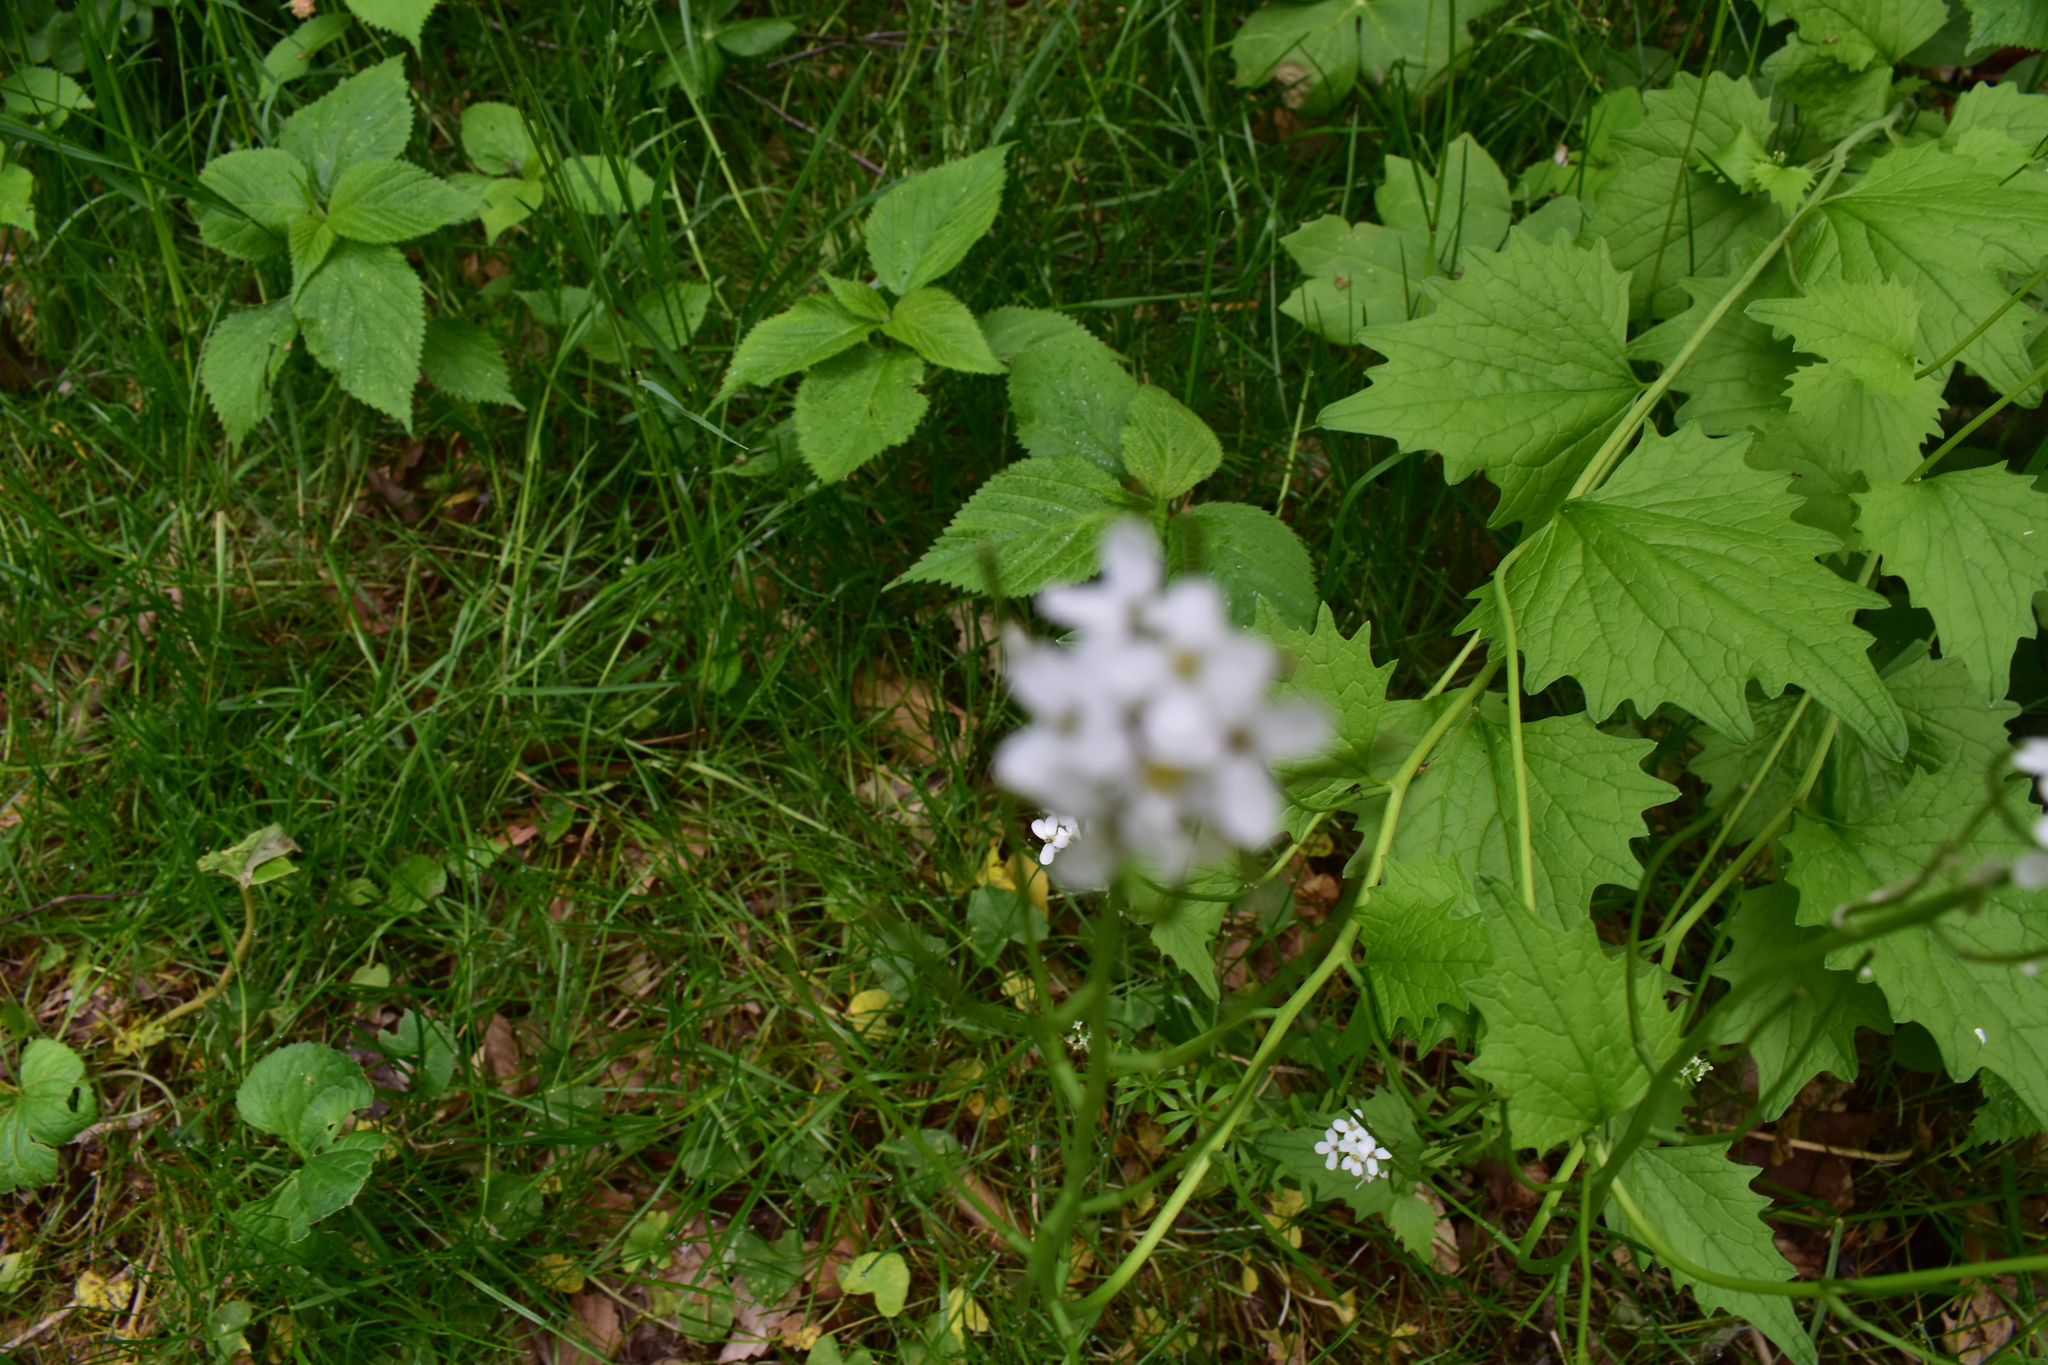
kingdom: Plantae
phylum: Tracheophyta
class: Magnoliopsida
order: Brassicales
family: Brassicaceae
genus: Alliaria
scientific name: Alliaria petiolata
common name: Garlic mustard
